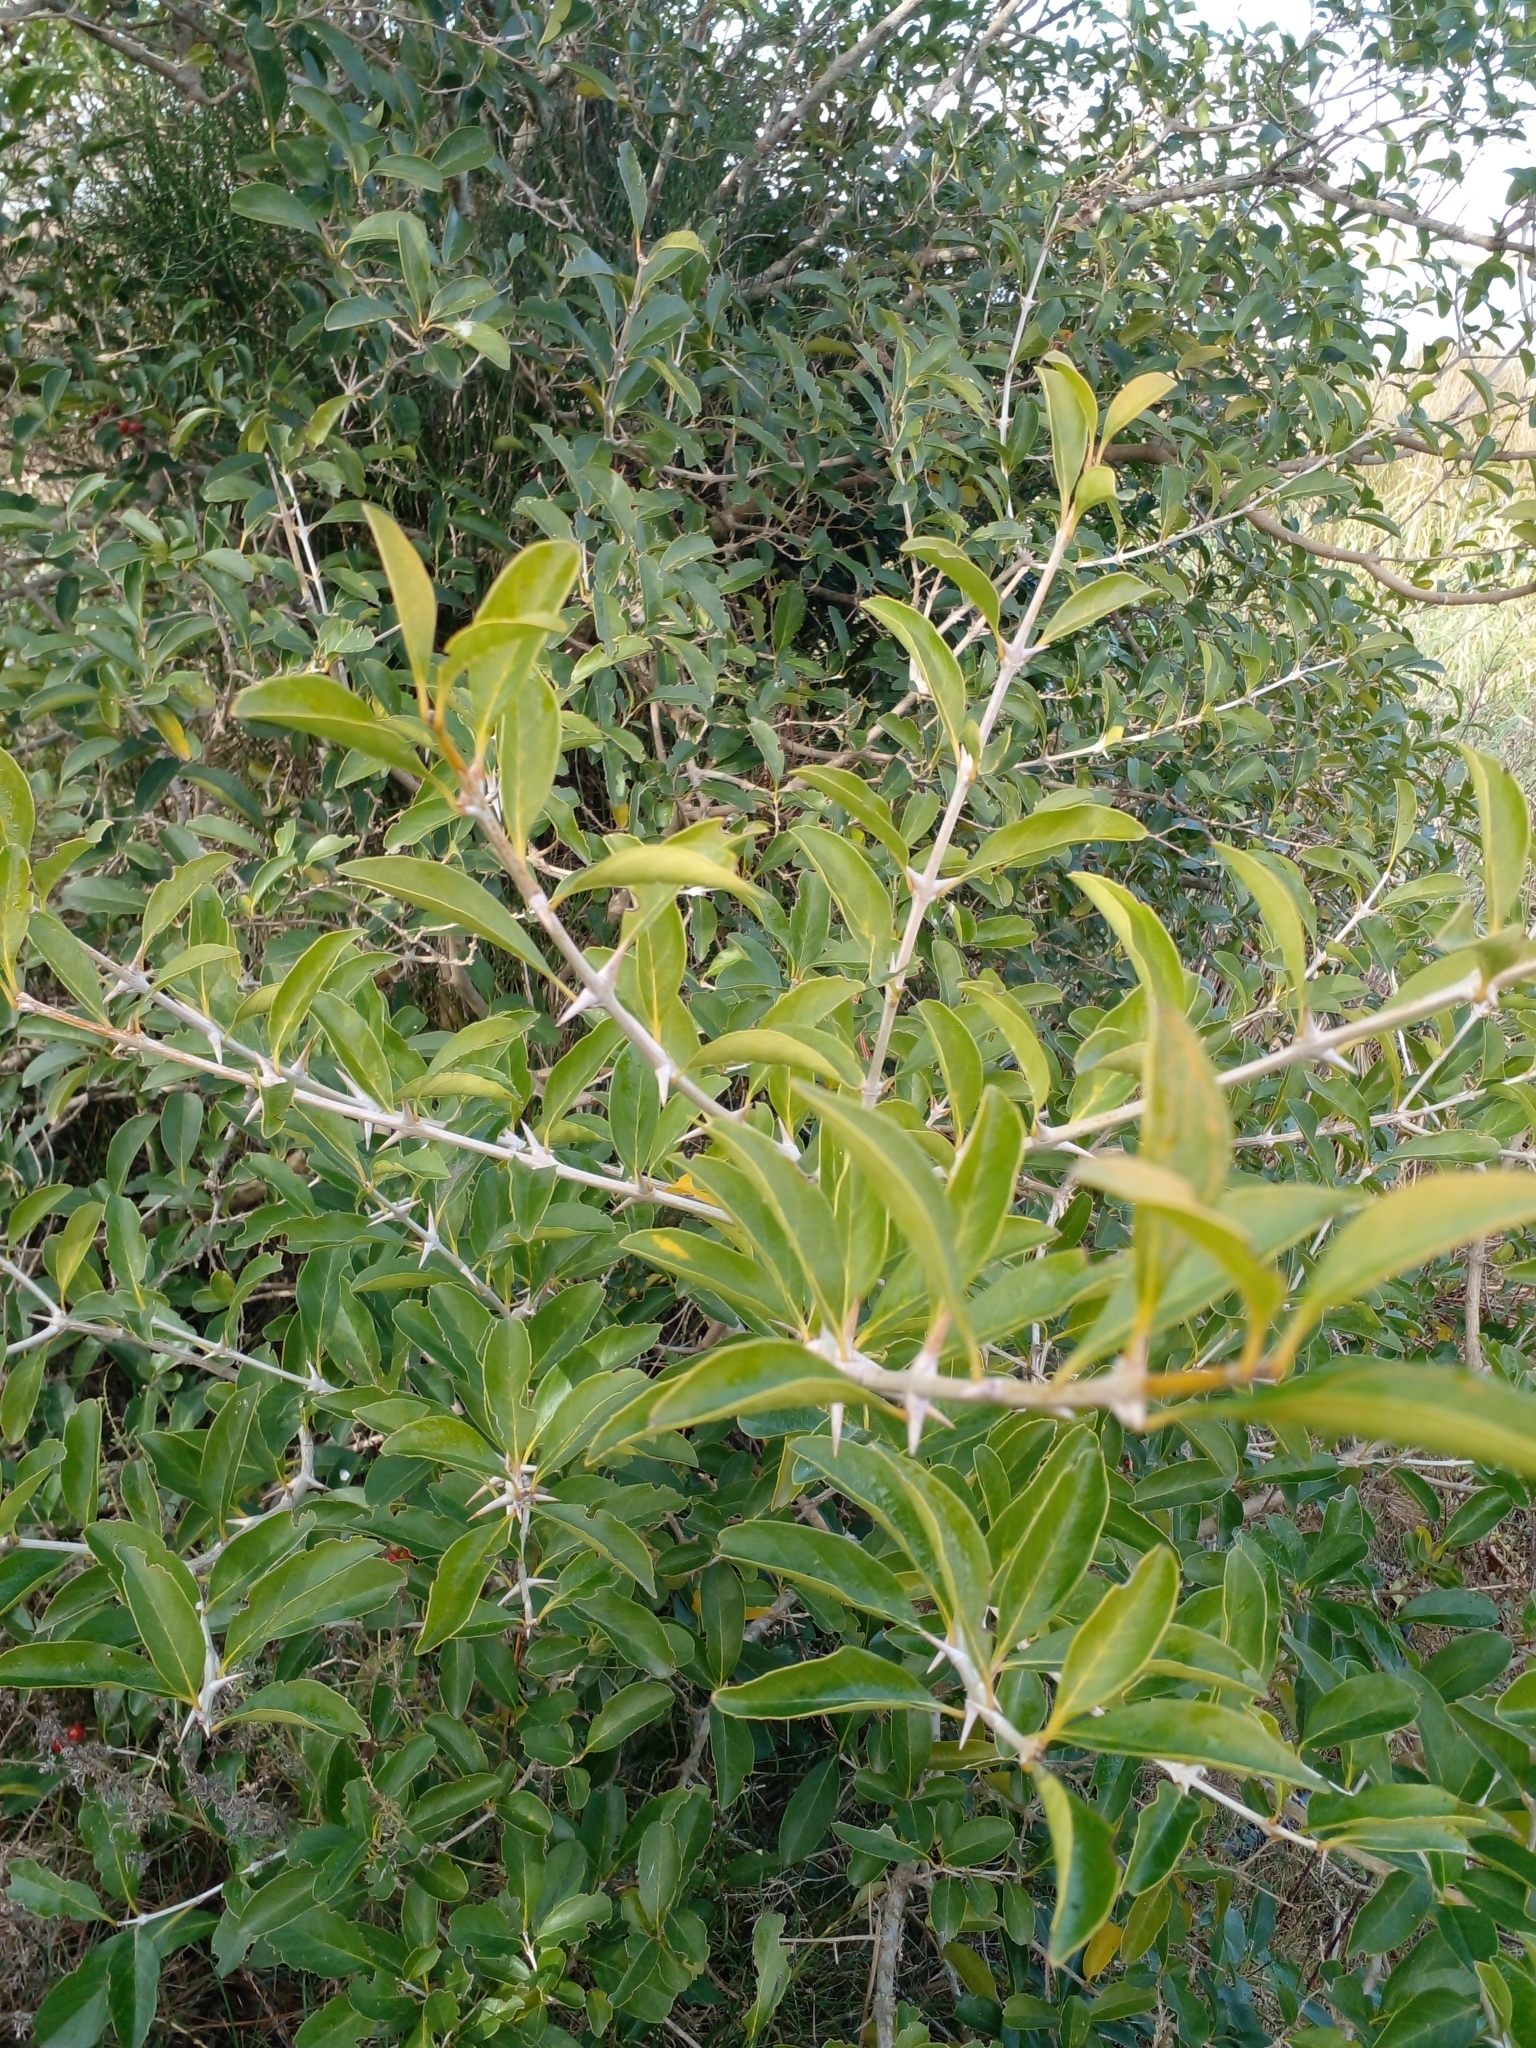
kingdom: Plantae
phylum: Tracheophyta
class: Magnoliopsida
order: Lamiales
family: Verbenaceae
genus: Citharexylum
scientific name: Citharexylum montevidense
